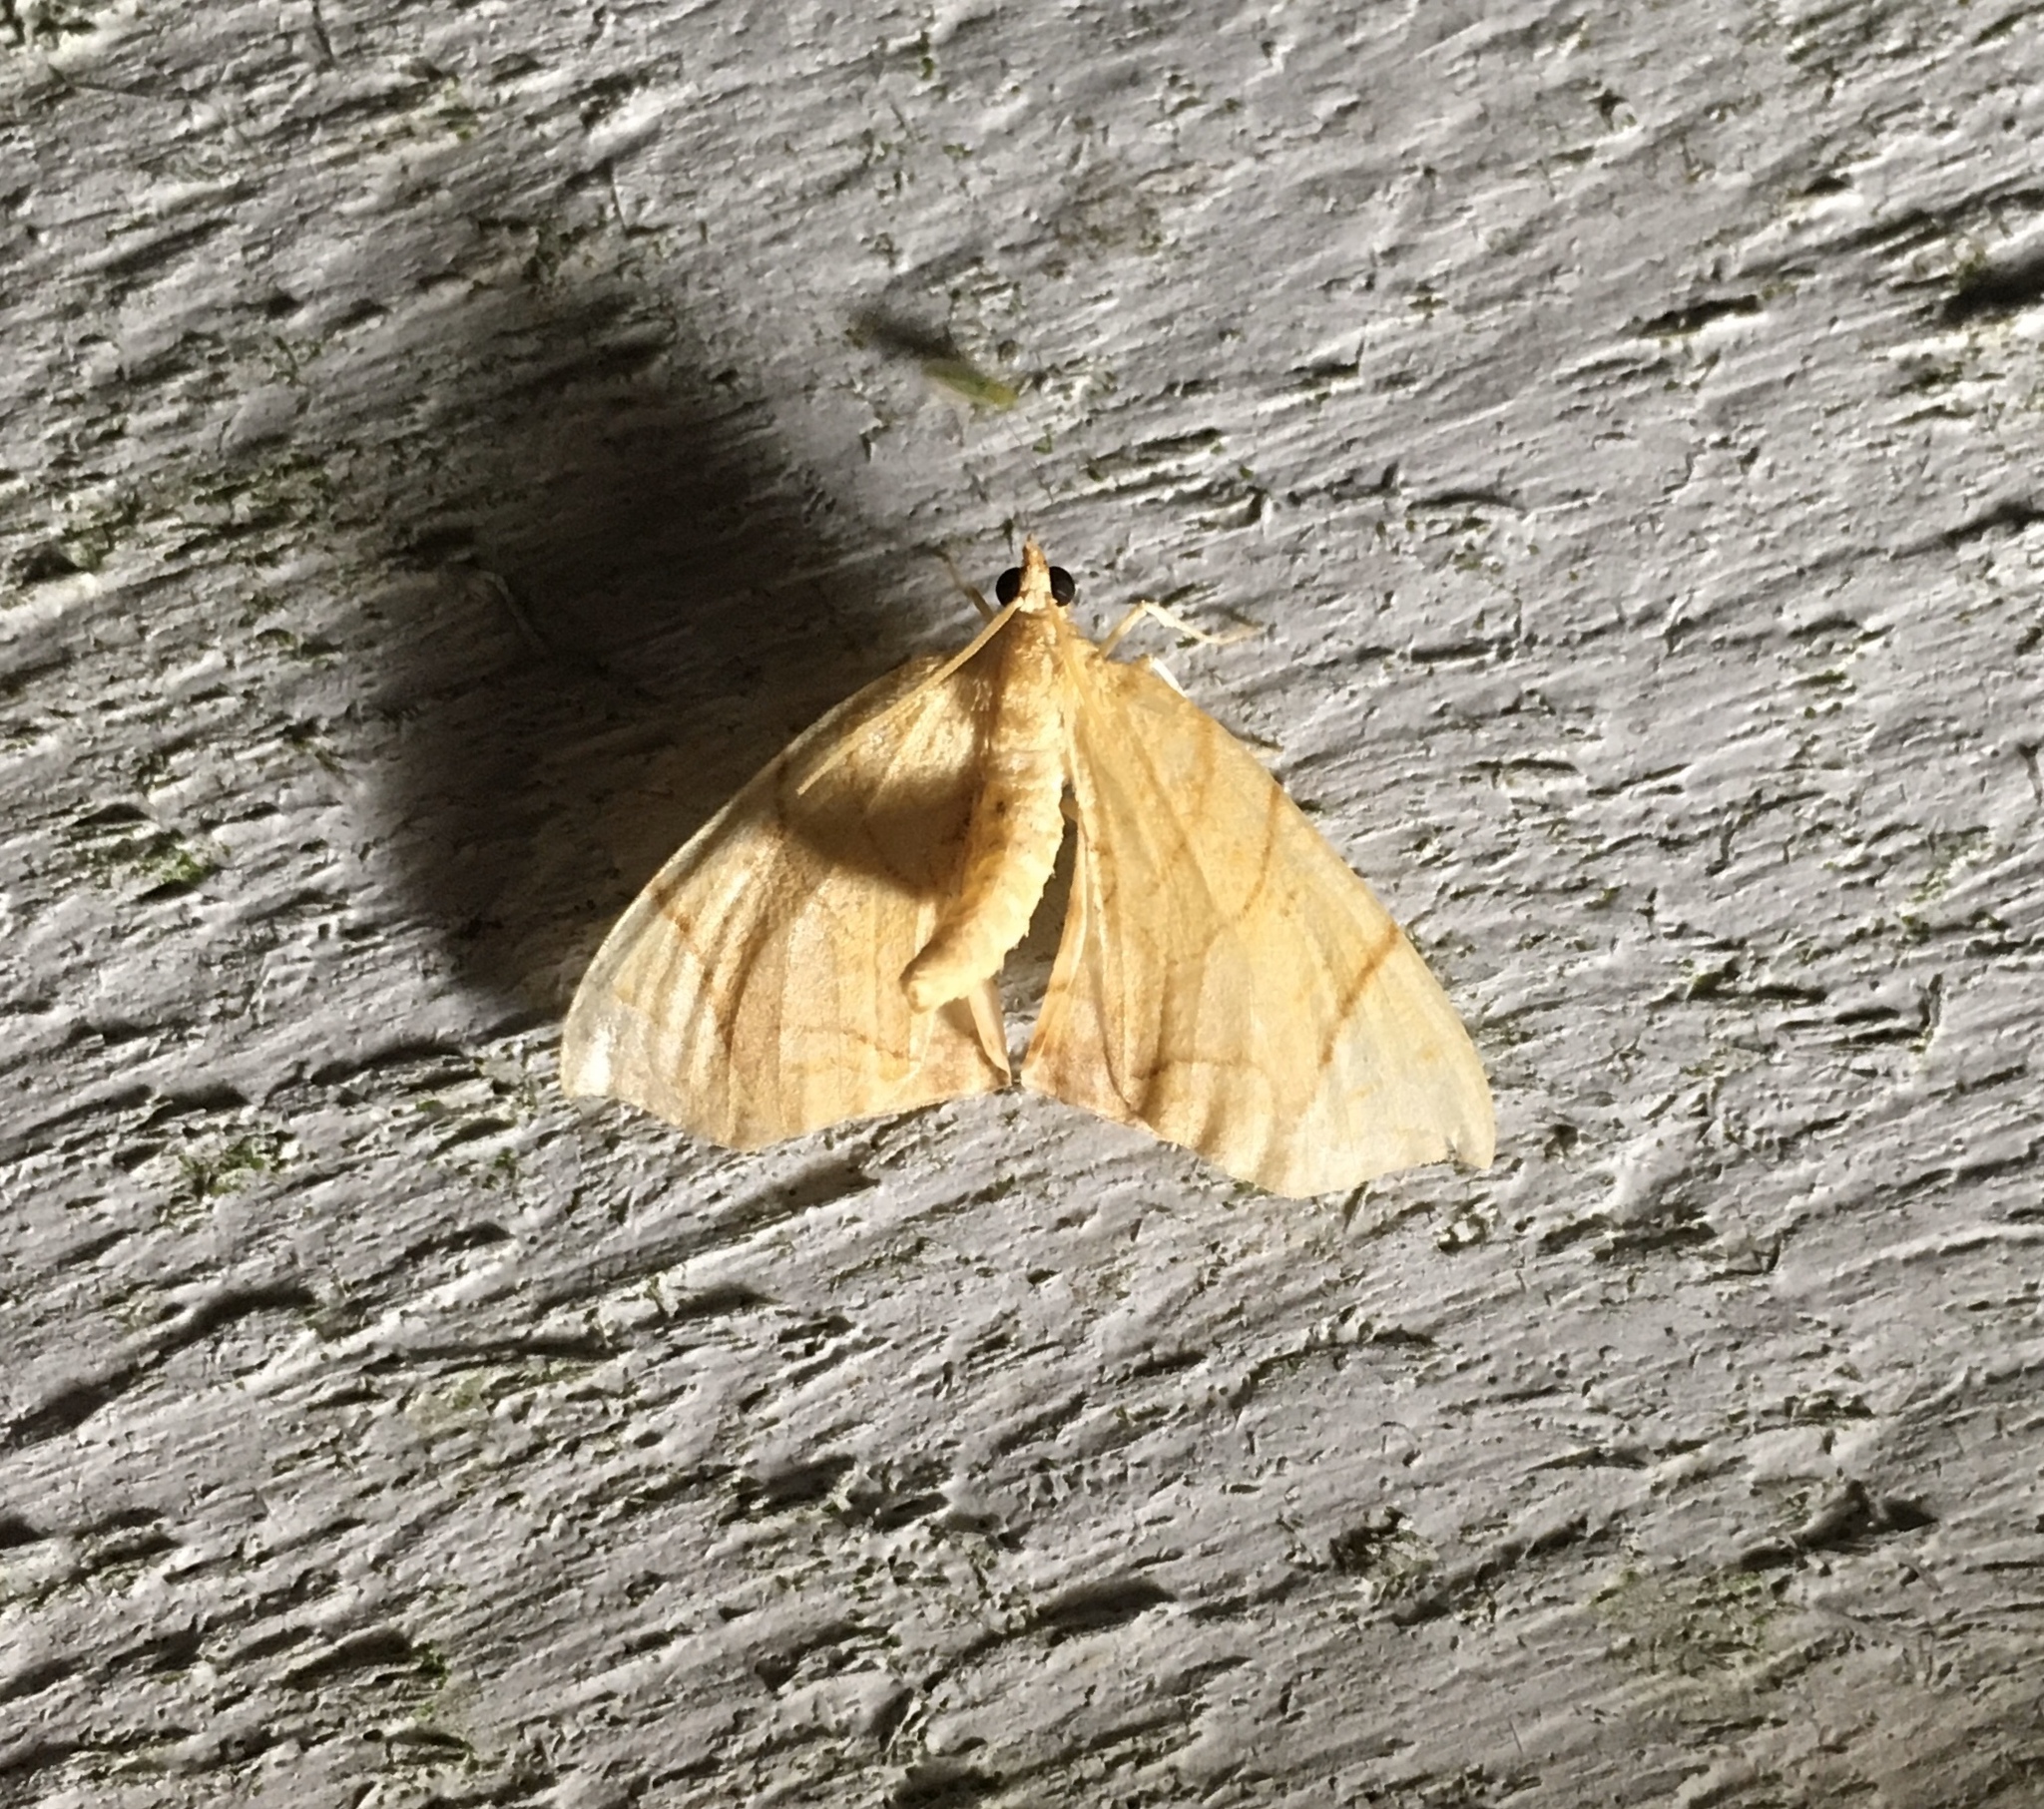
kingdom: Animalia
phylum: Arthropoda
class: Insecta
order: Lepidoptera
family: Geometridae
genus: Eulithis
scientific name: Eulithis
